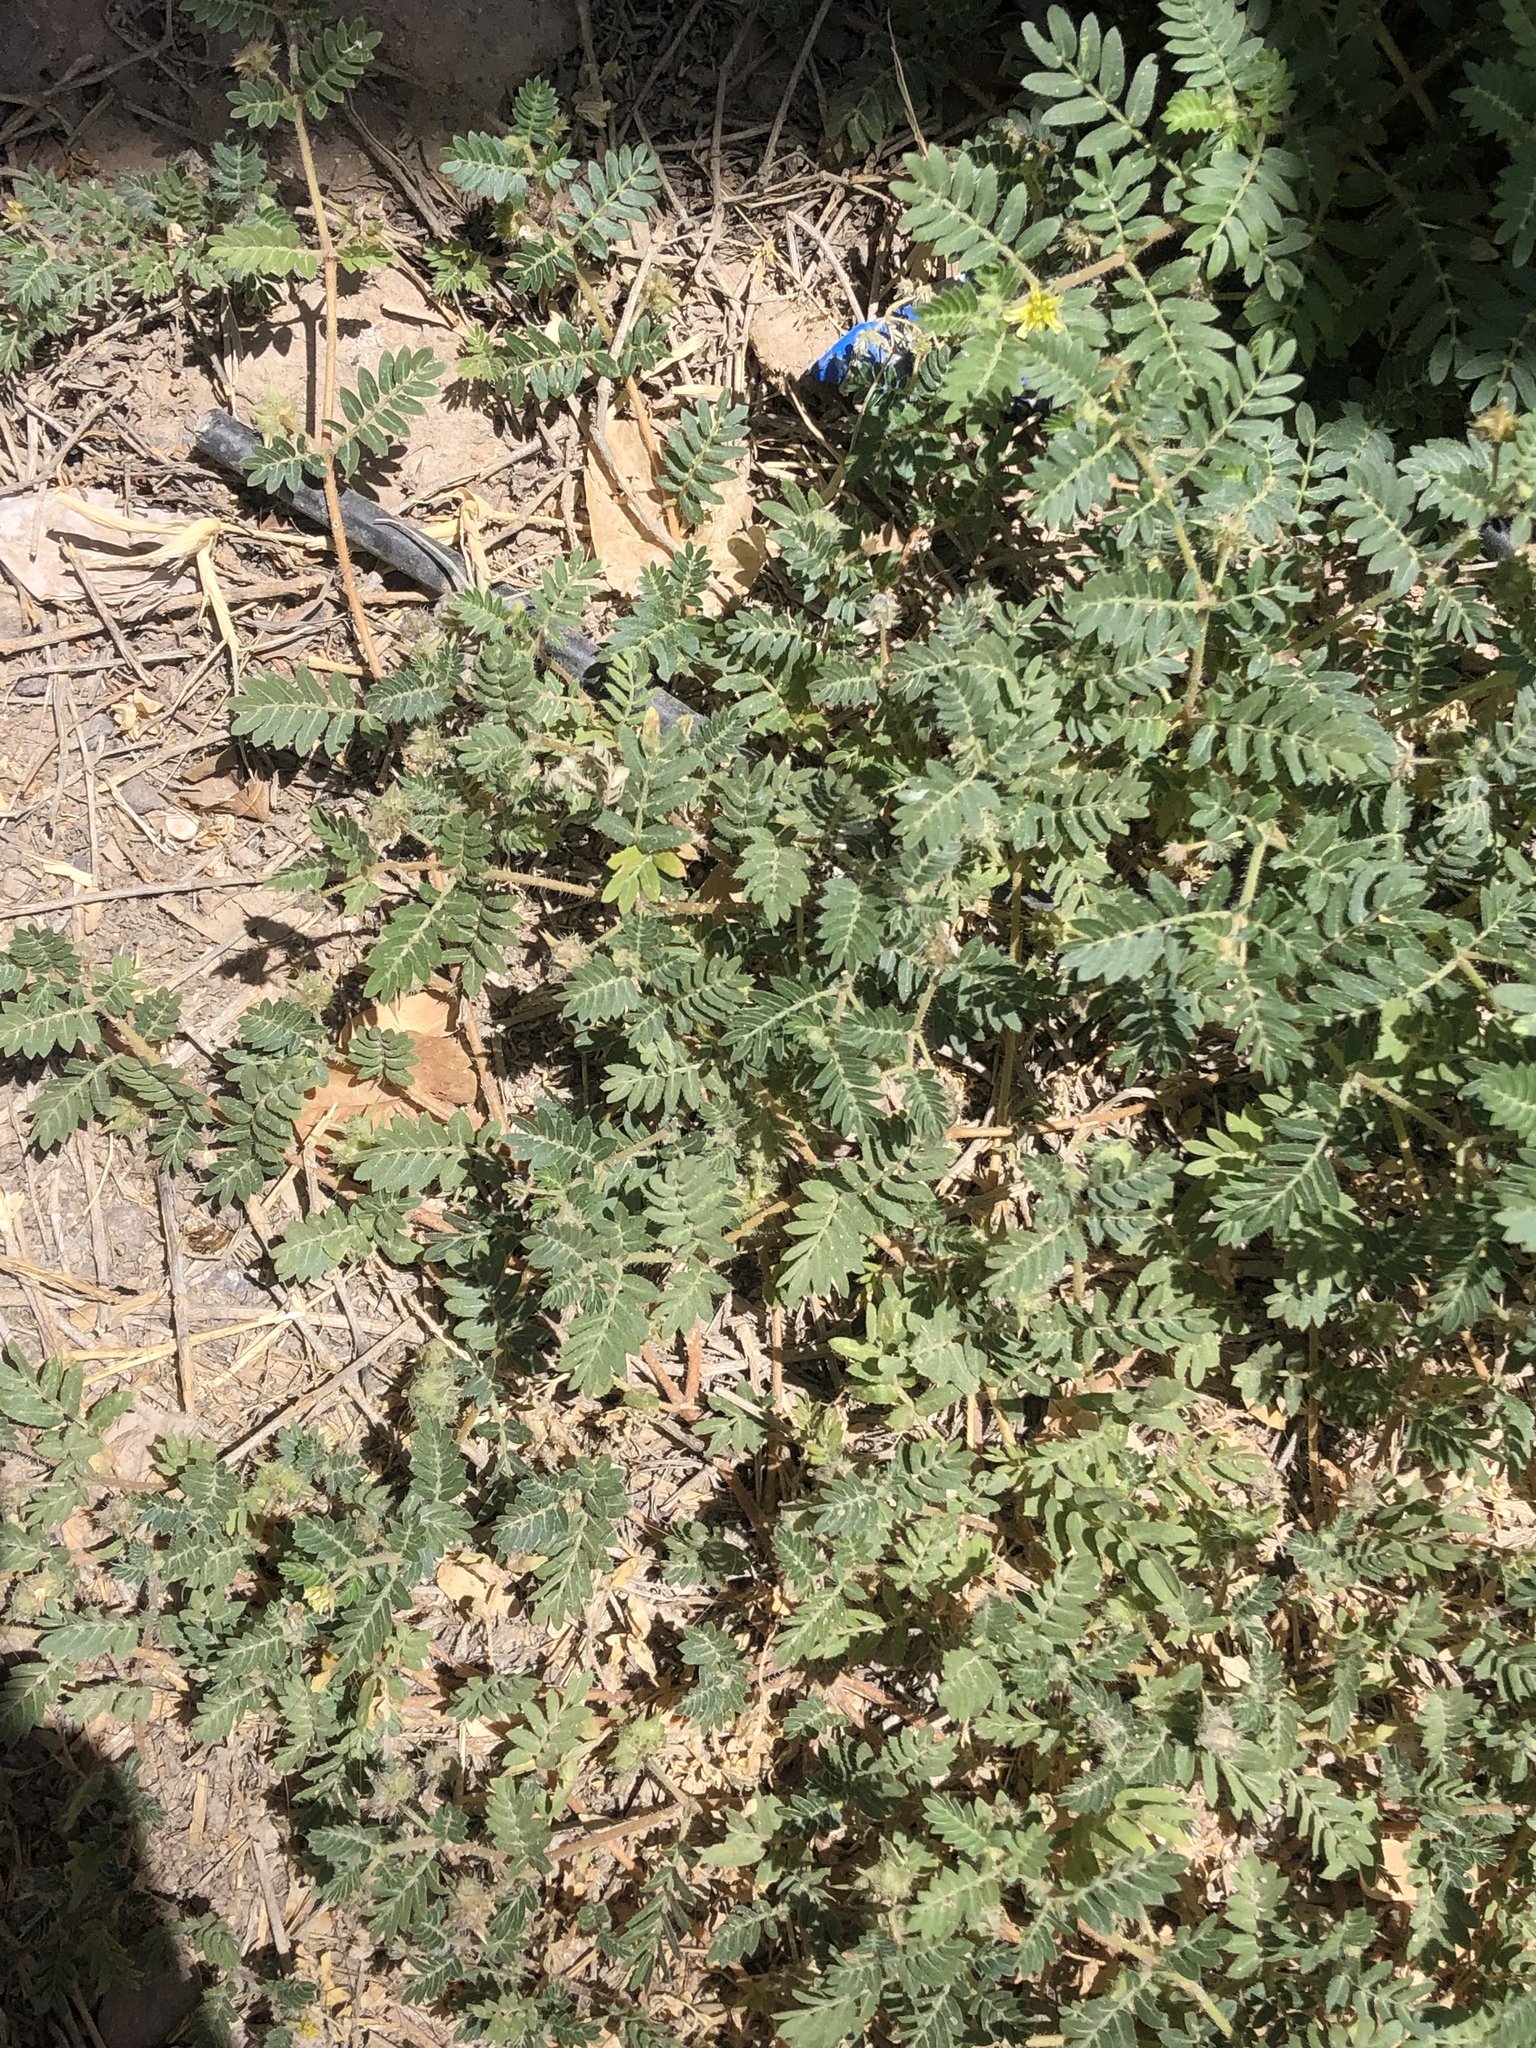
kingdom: Plantae
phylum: Tracheophyta
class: Magnoliopsida
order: Zygophyllales
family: Zygophyllaceae
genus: Tribulus
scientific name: Tribulus terrestris
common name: Puncturevine
